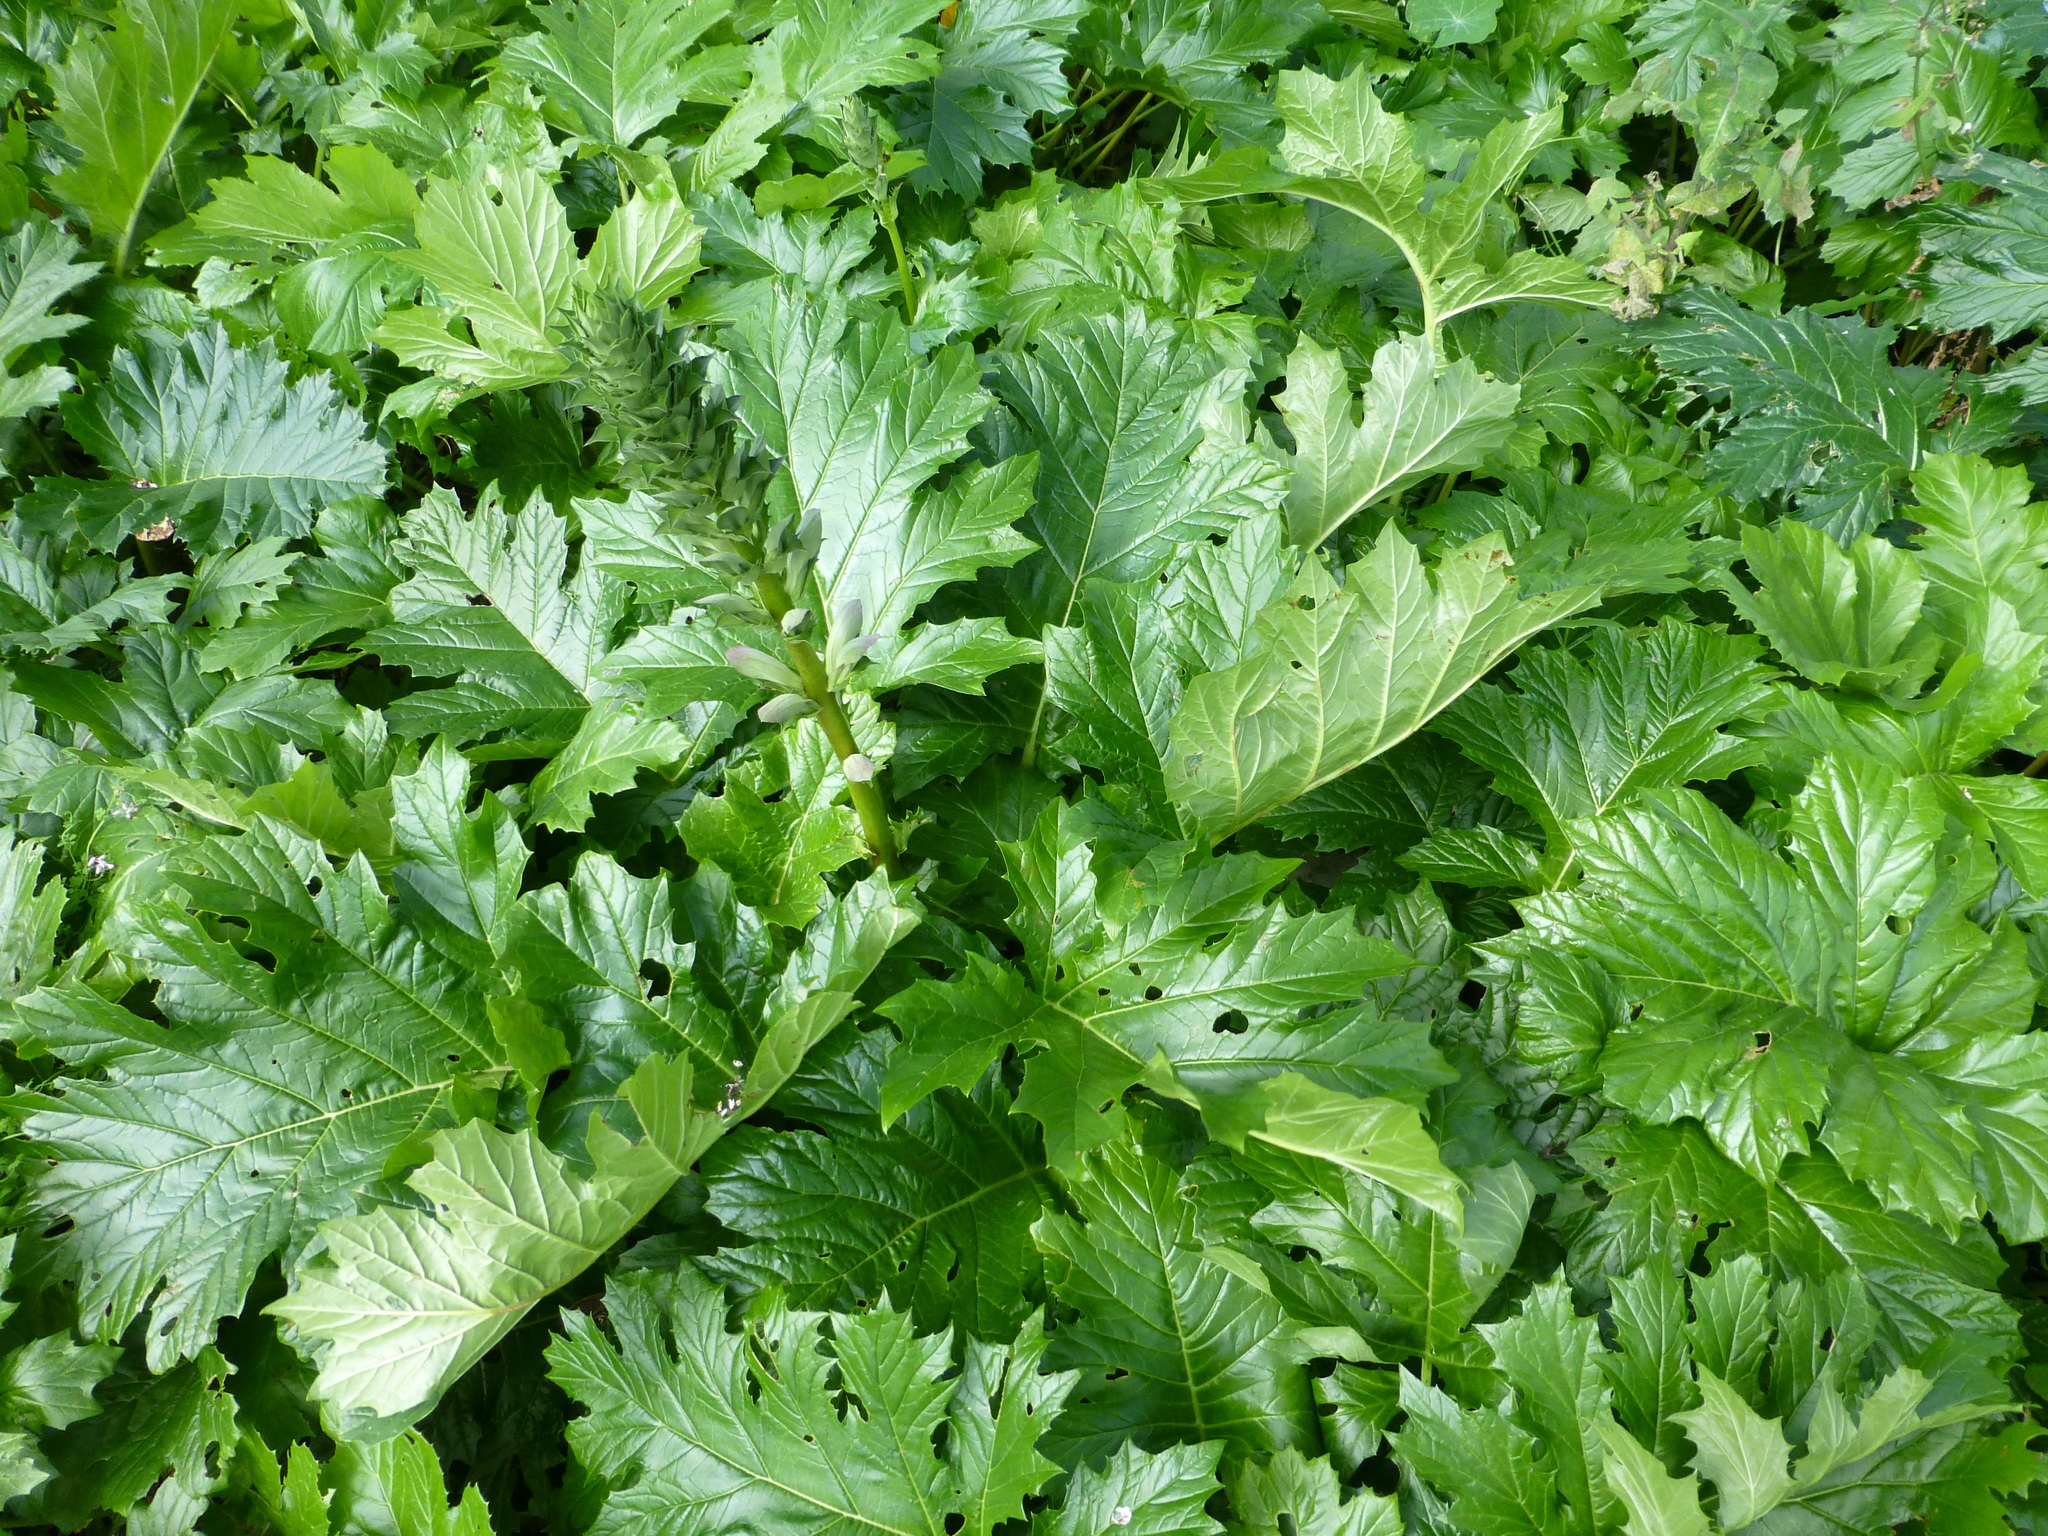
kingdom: Plantae
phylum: Tracheophyta
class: Magnoliopsida
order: Lamiales
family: Acanthaceae
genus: Acanthus
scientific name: Acanthus mollis
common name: Bear's-breech
